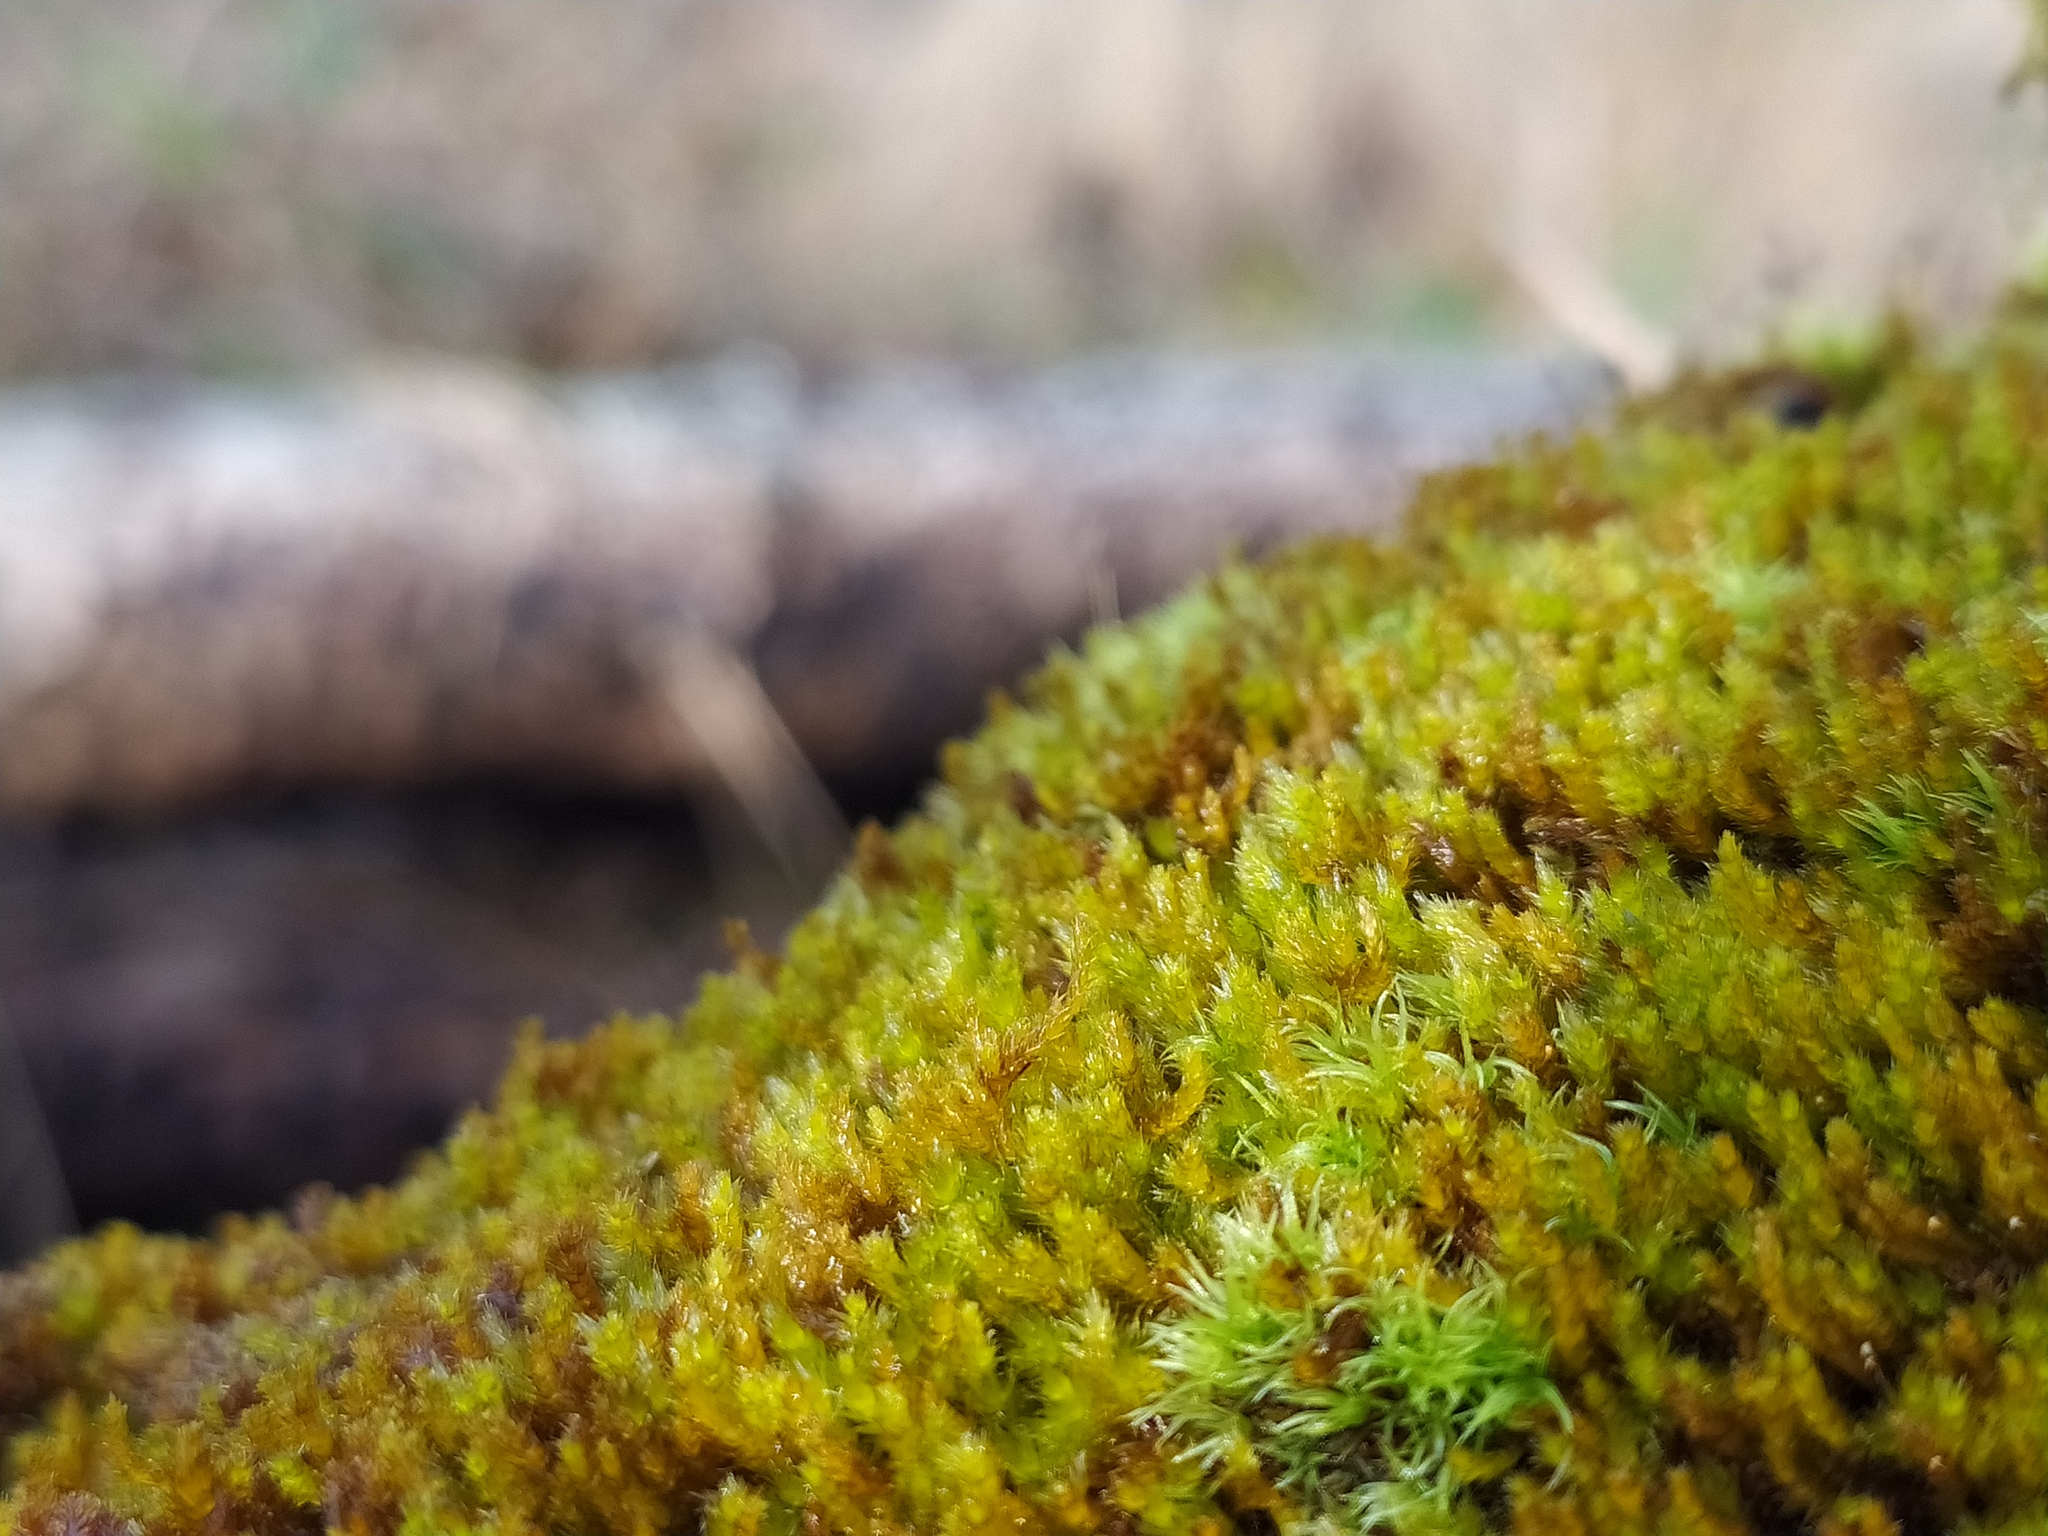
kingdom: Plantae
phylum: Bryophyta
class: Bryopsida
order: Hypnales
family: Pylaisiadelphaceae
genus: Platygyrium
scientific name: Platygyrium repens
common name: Flat-brocade moss
